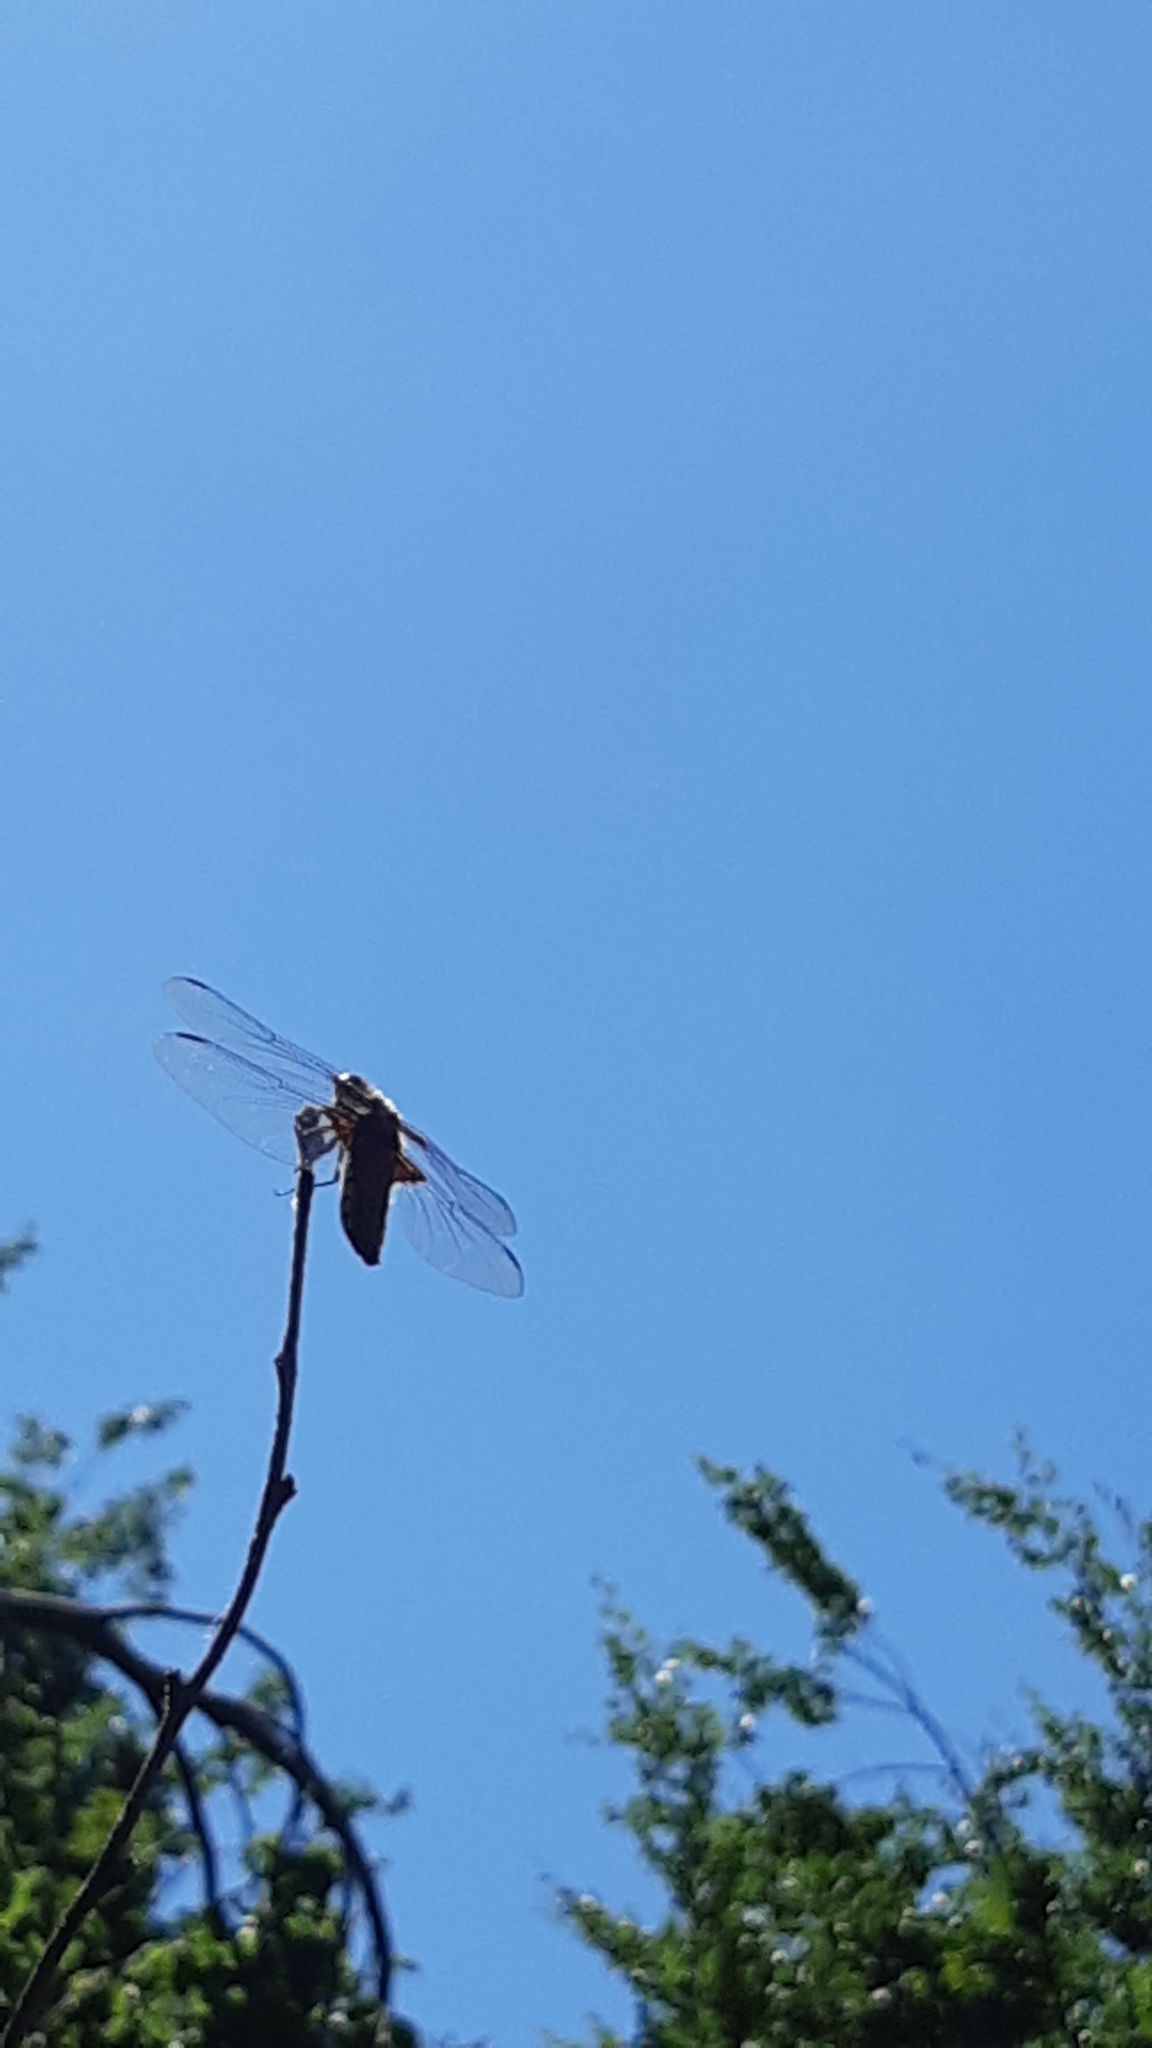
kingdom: Animalia
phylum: Arthropoda
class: Insecta
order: Odonata
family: Libellulidae
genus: Libellula
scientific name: Libellula depressa
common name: Broad-bodied chaser
